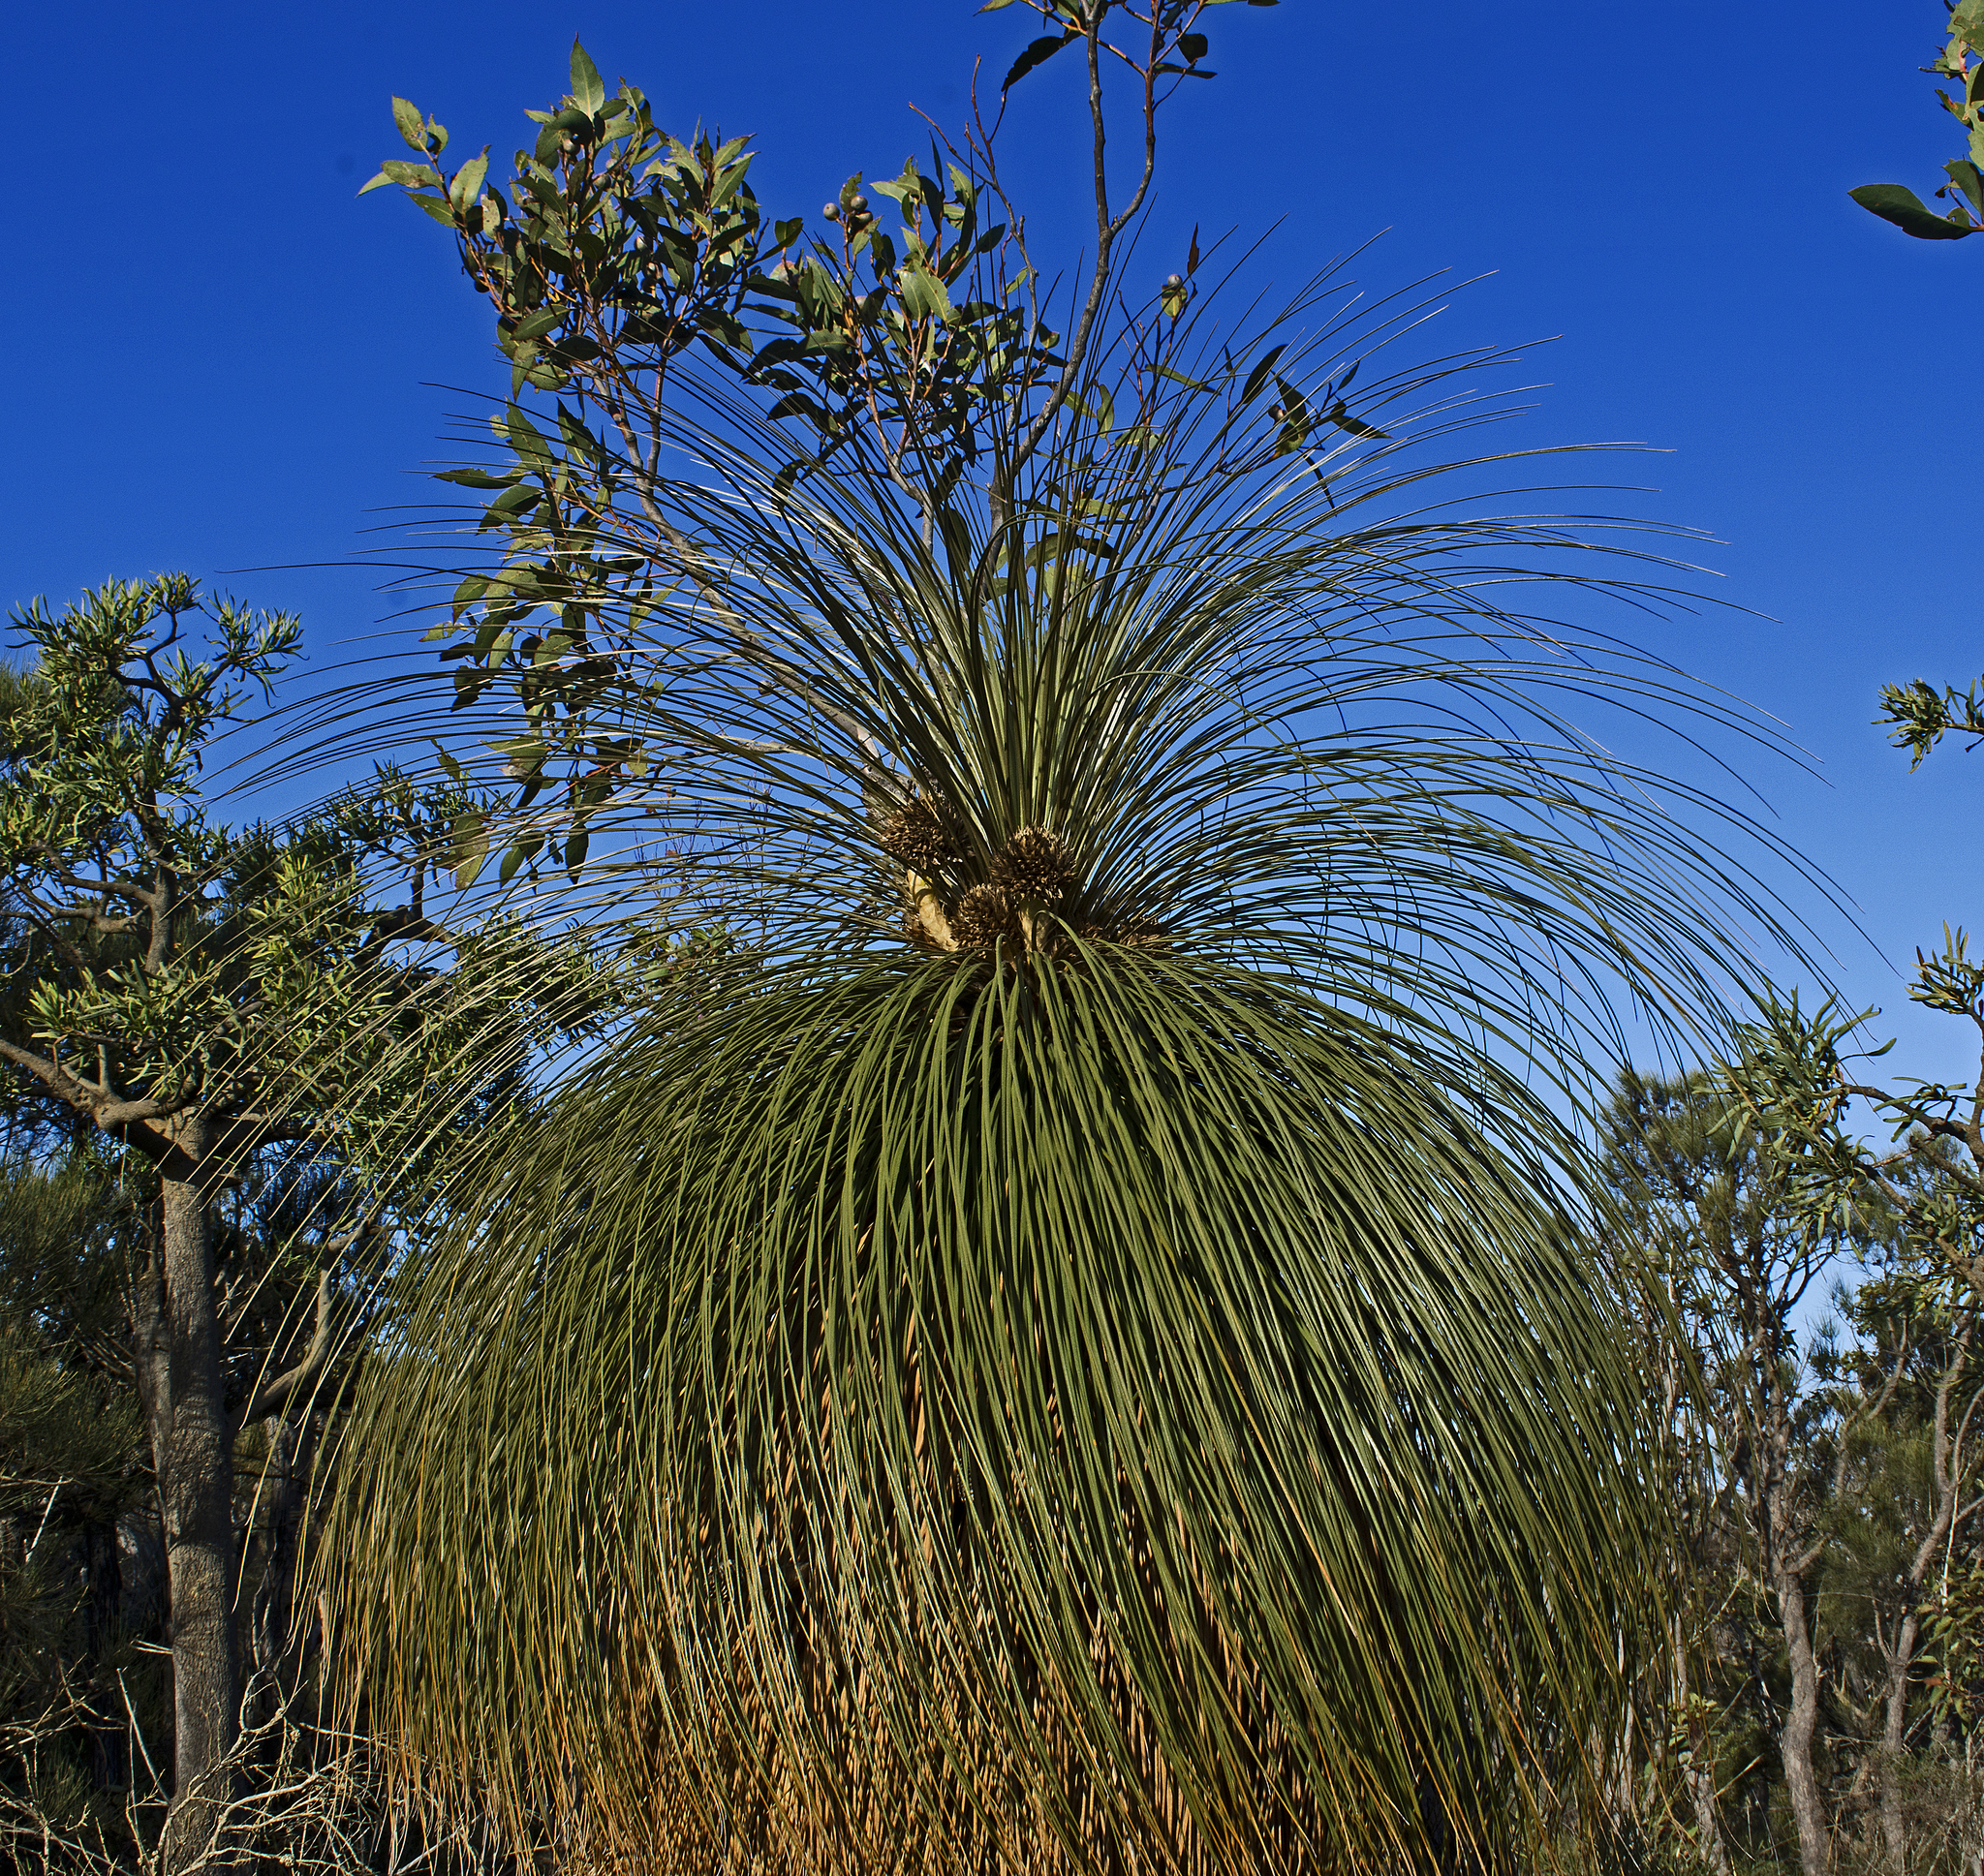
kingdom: Plantae
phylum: Tracheophyta
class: Liliopsida
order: Arecales
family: Dasypogonaceae
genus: Kingia
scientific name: Kingia australis
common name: Black gin
